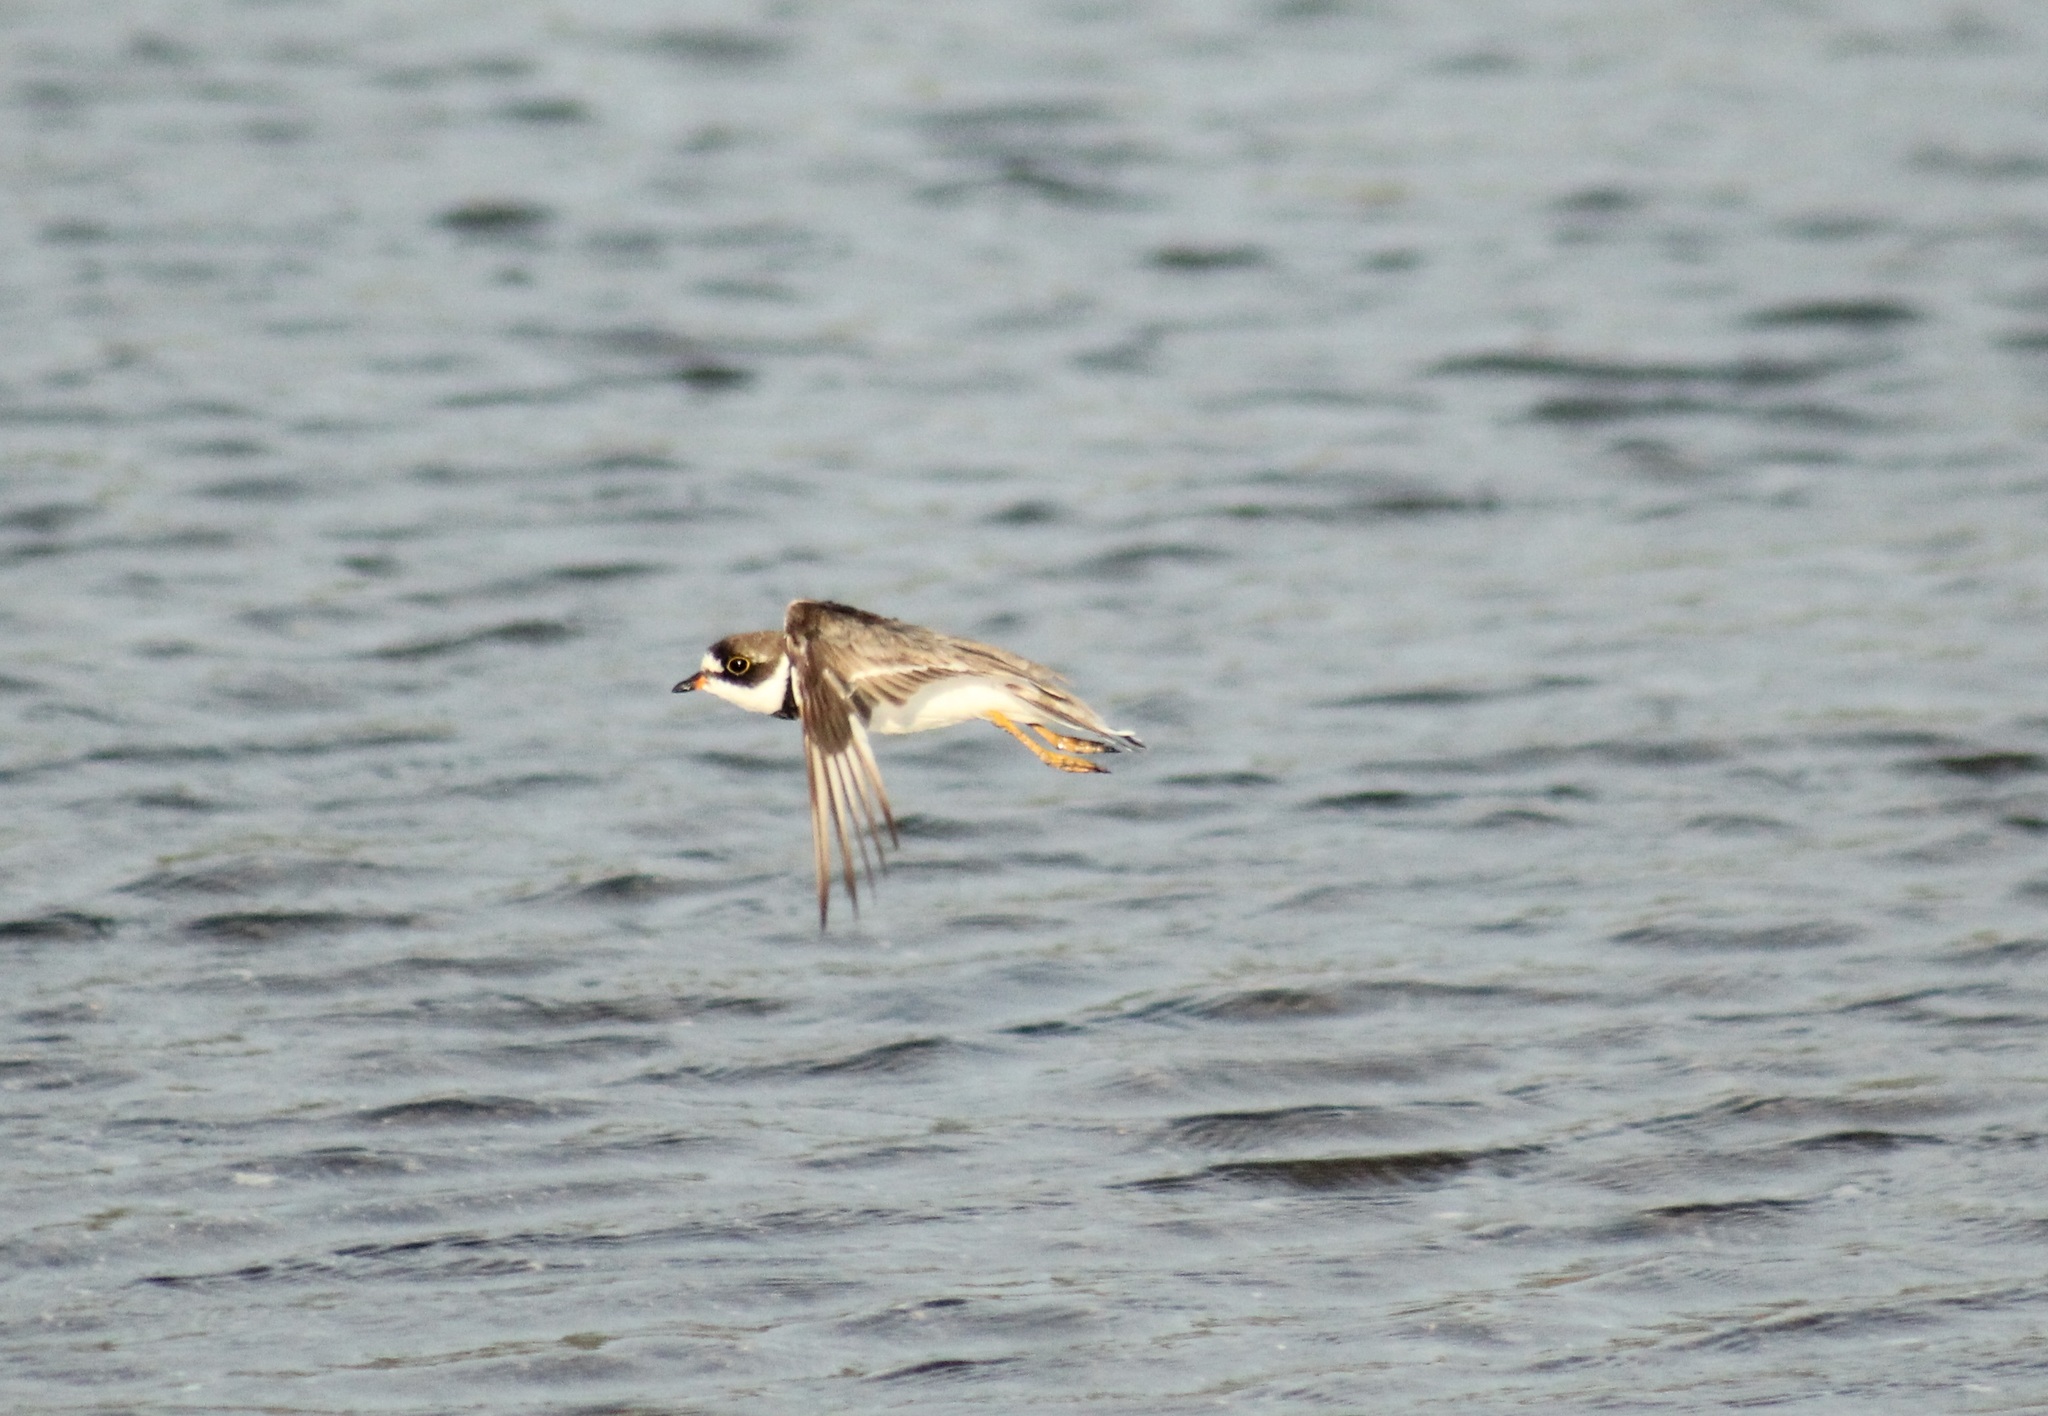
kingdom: Animalia
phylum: Chordata
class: Aves
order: Charadriiformes
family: Charadriidae
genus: Charadrius
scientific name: Charadrius semipalmatus
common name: Semipalmated plover
